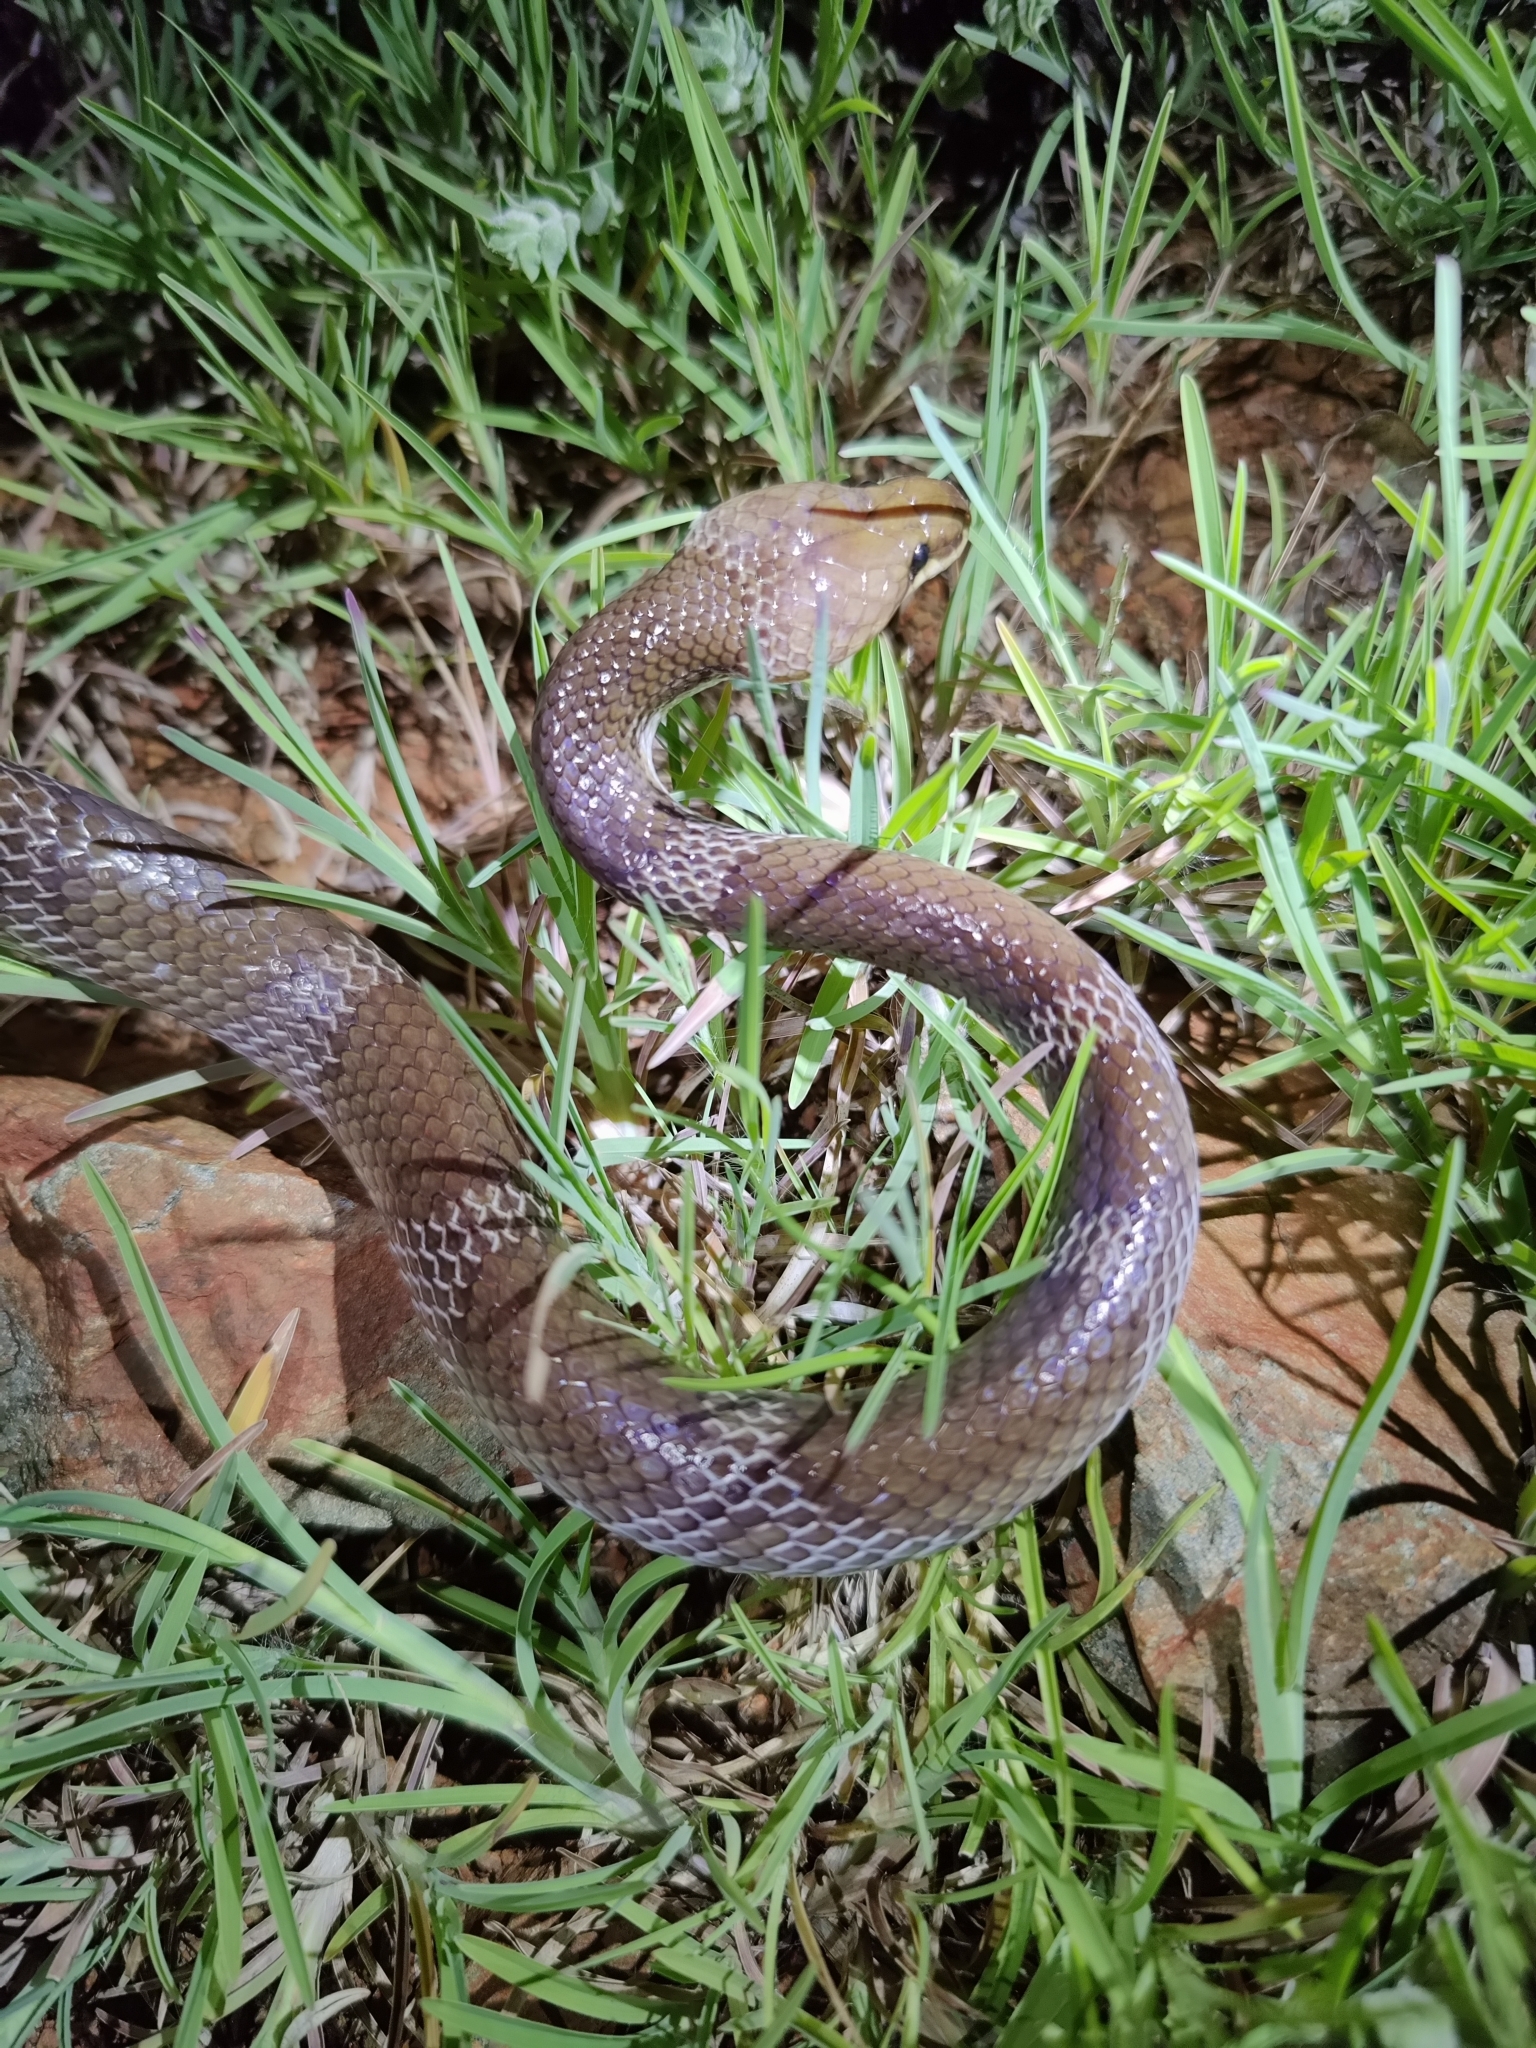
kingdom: Animalia
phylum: Chordata
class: Squamata
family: Colubridae
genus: Lycodon
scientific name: Lycodon aulicus
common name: Common wolf snake
